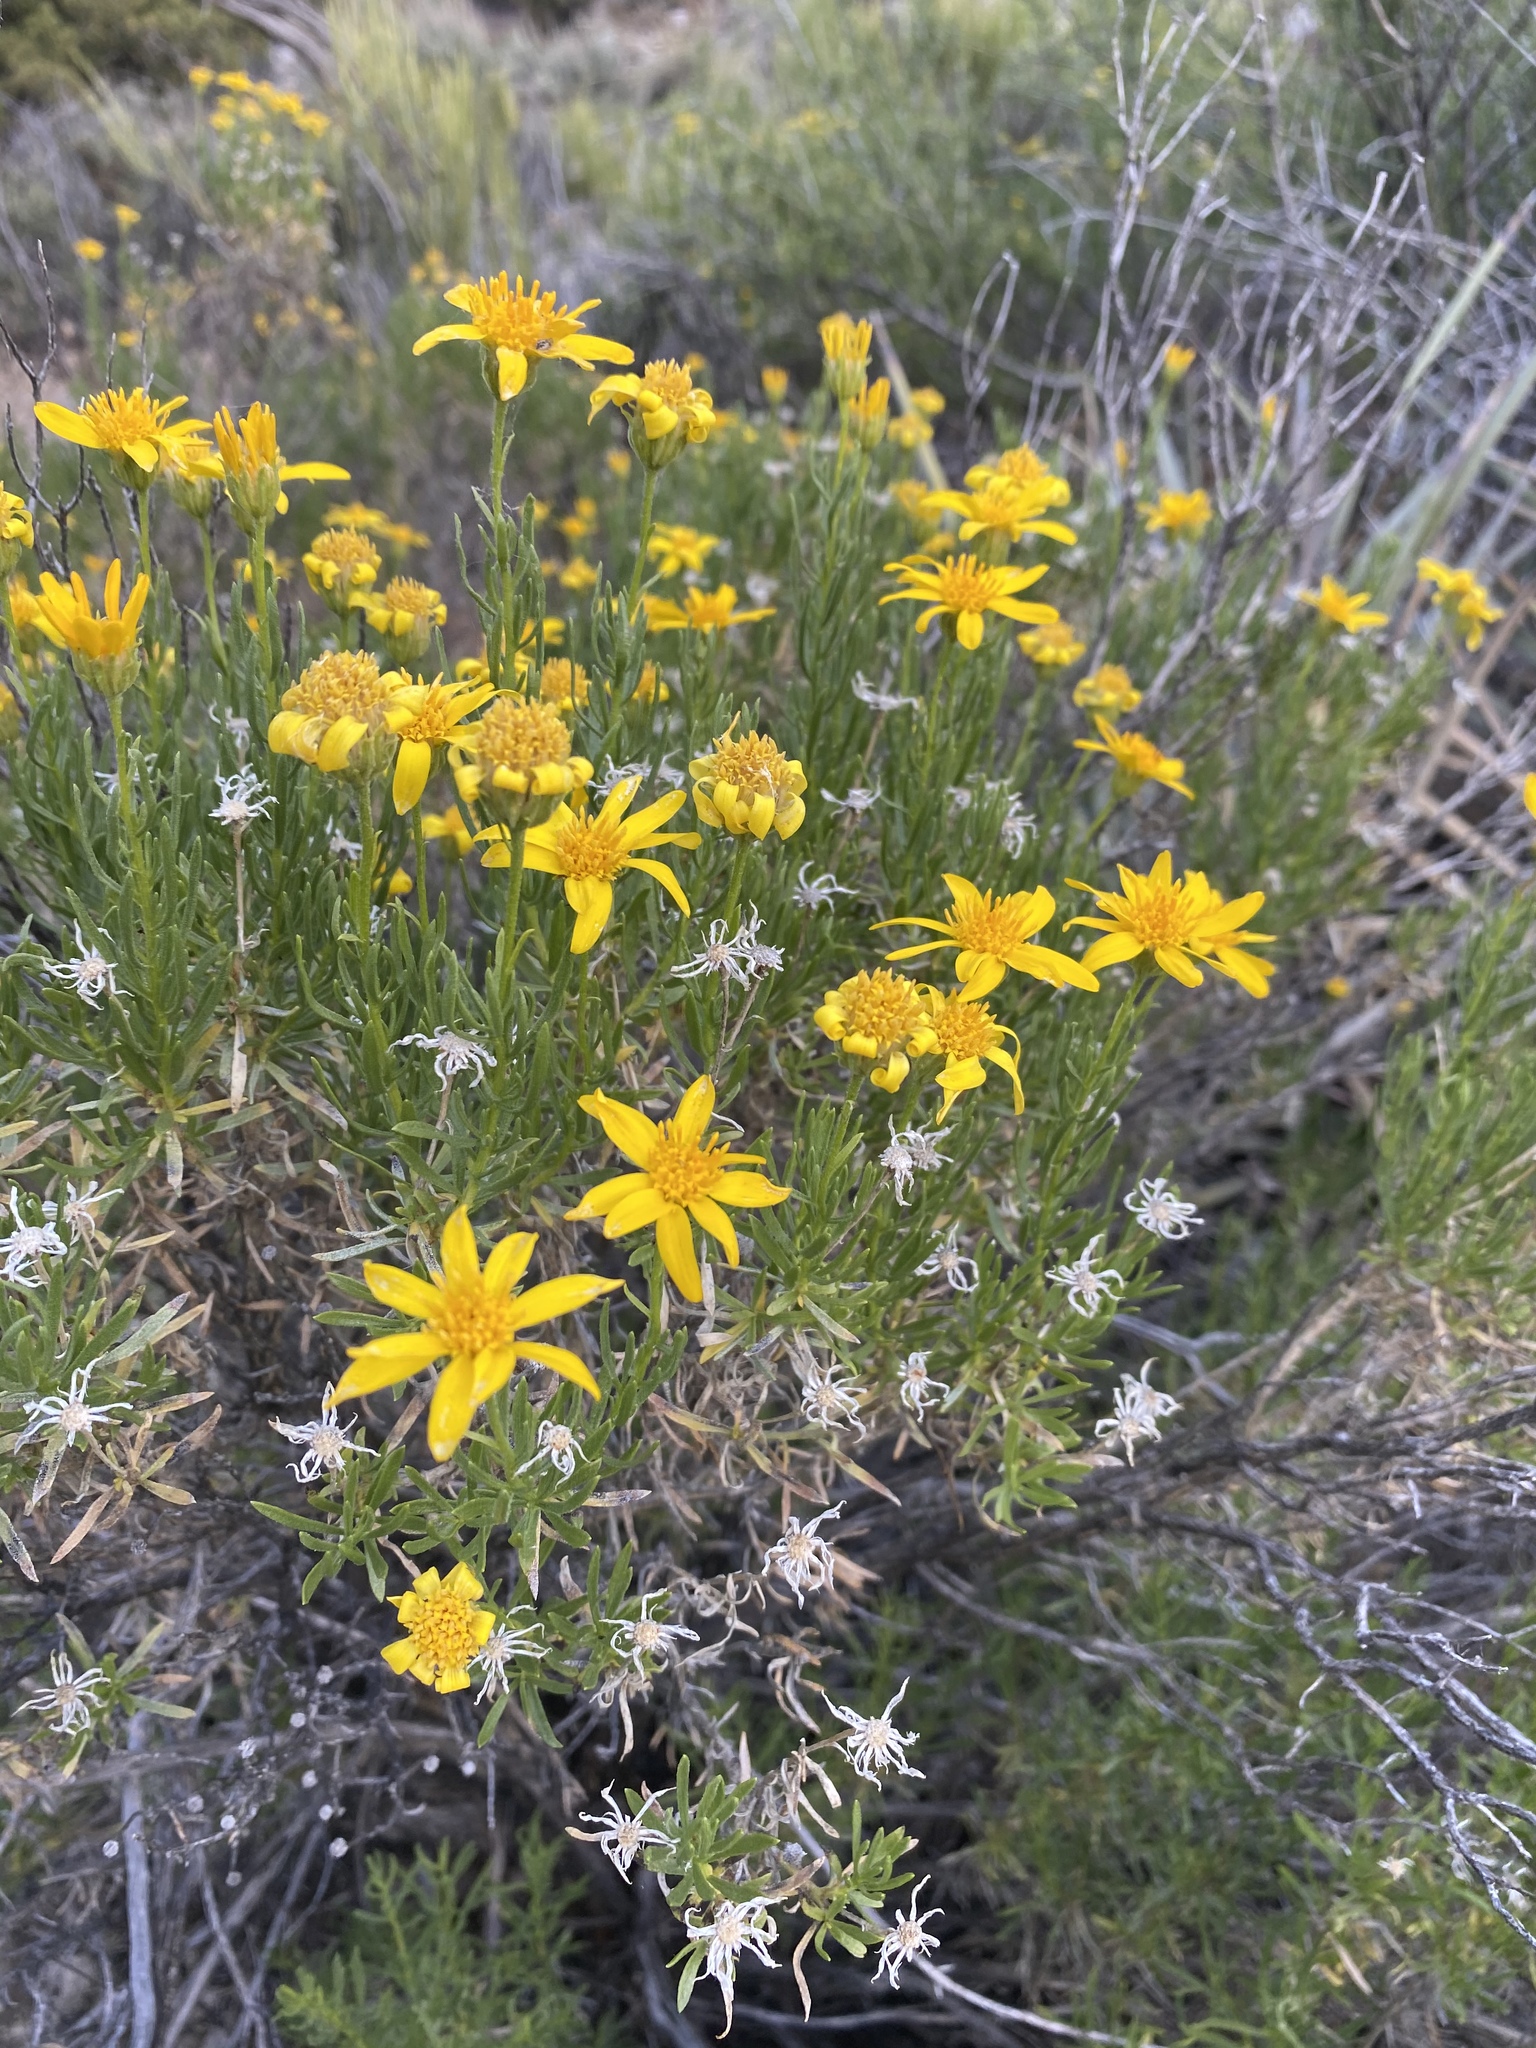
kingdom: Plantae
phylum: Tracheophyta
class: Magnoliopsida
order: Asterales
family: Asteraceae
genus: Ericameria
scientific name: Ericameria linearifolia
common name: Interior goldenbush
